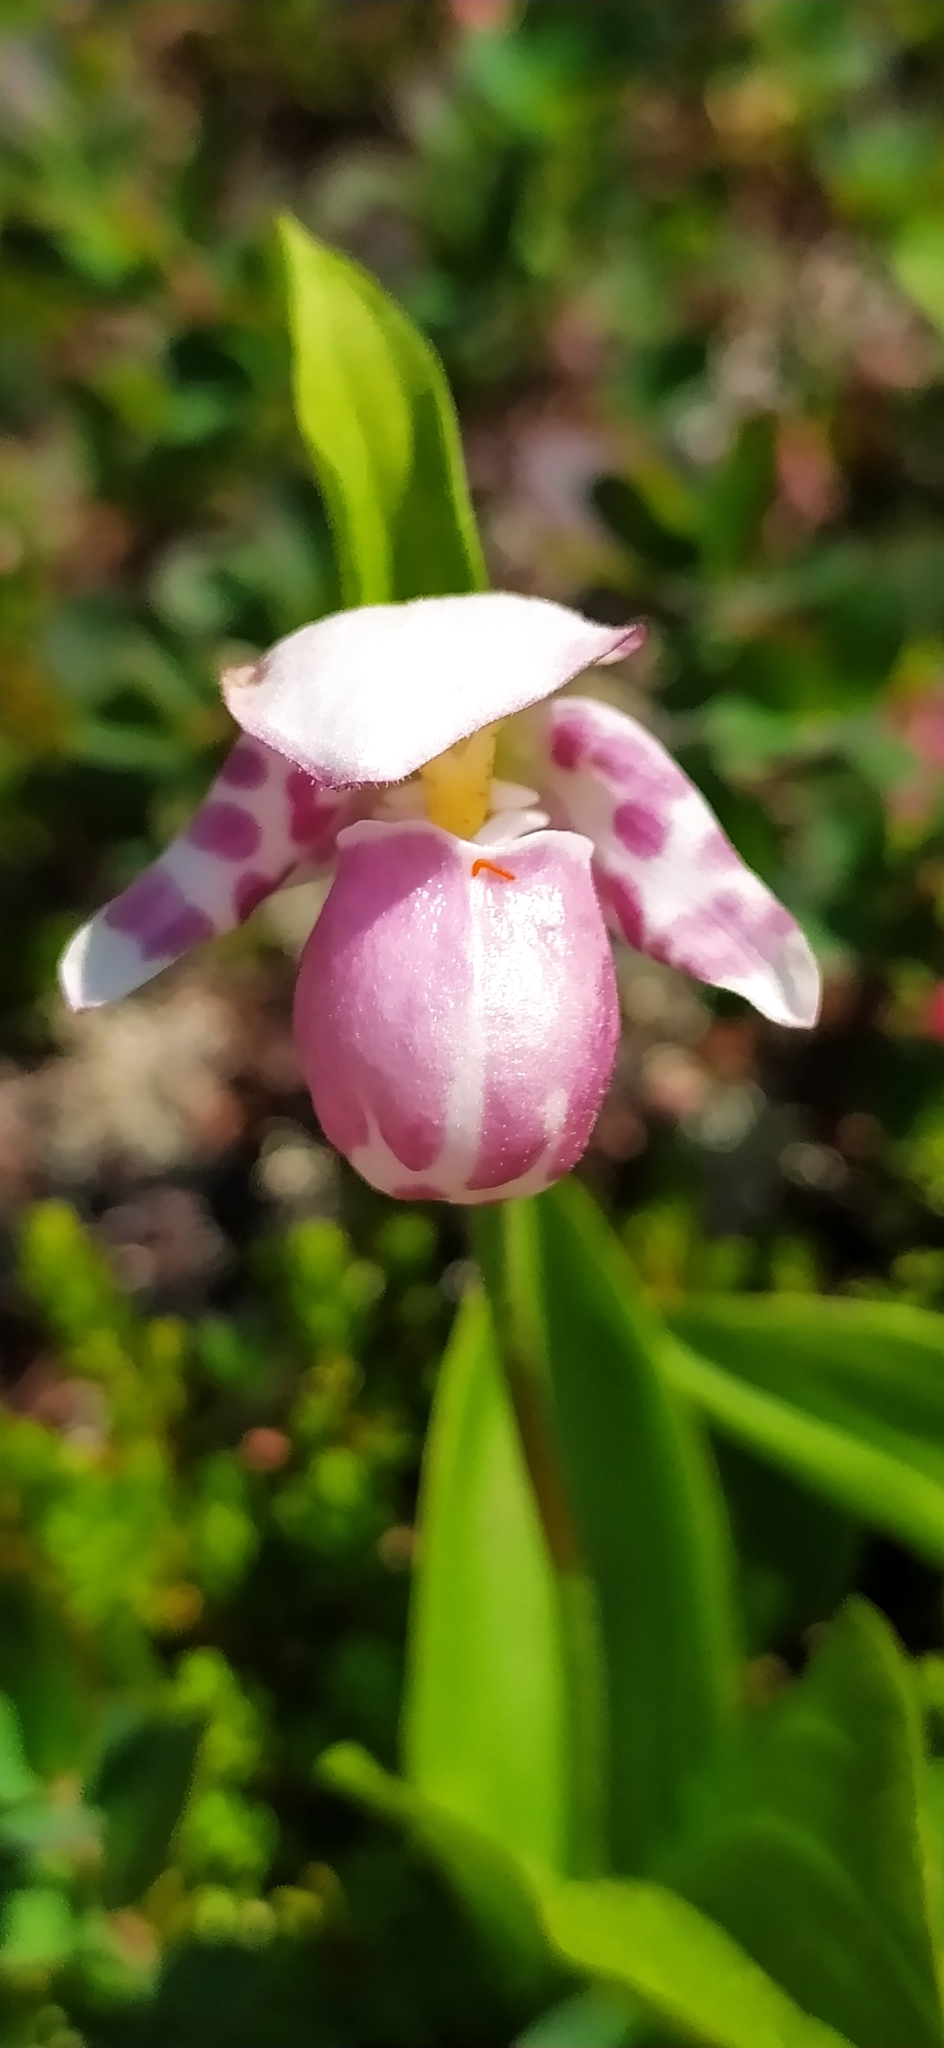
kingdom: Plantae
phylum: Tracheophyta
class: Liliopsida
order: Asparagales
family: Orchidaceae
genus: Cypripedium
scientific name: Cypripedium guttatum
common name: Pink lady slipper
